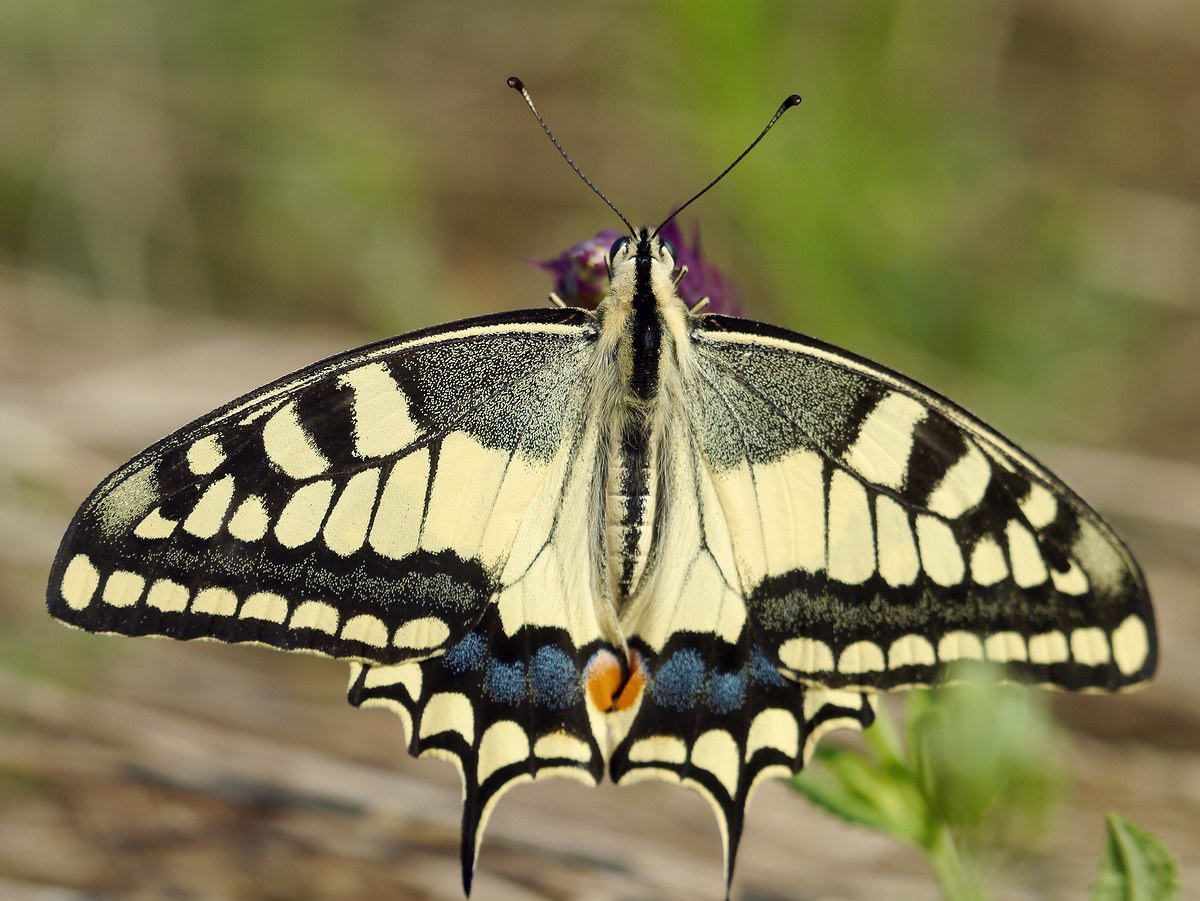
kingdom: Animalia
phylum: Arthropoda
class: Insecta
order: Lepidoptera
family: Papilionidae
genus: Papilio
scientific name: Papilio machaon
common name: Swallowtail
